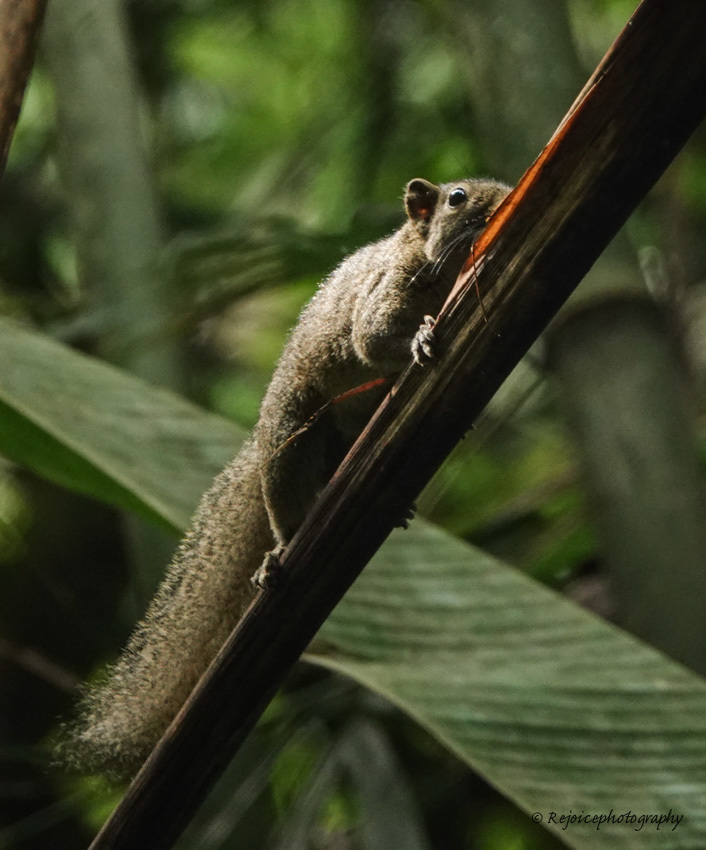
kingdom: Animalia
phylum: Chordata
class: Mammalia
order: Rodentia
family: Sciuridae
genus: Callosciurus
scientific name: Callosciurus pygerythrus
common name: Irrawaddy squirrel
